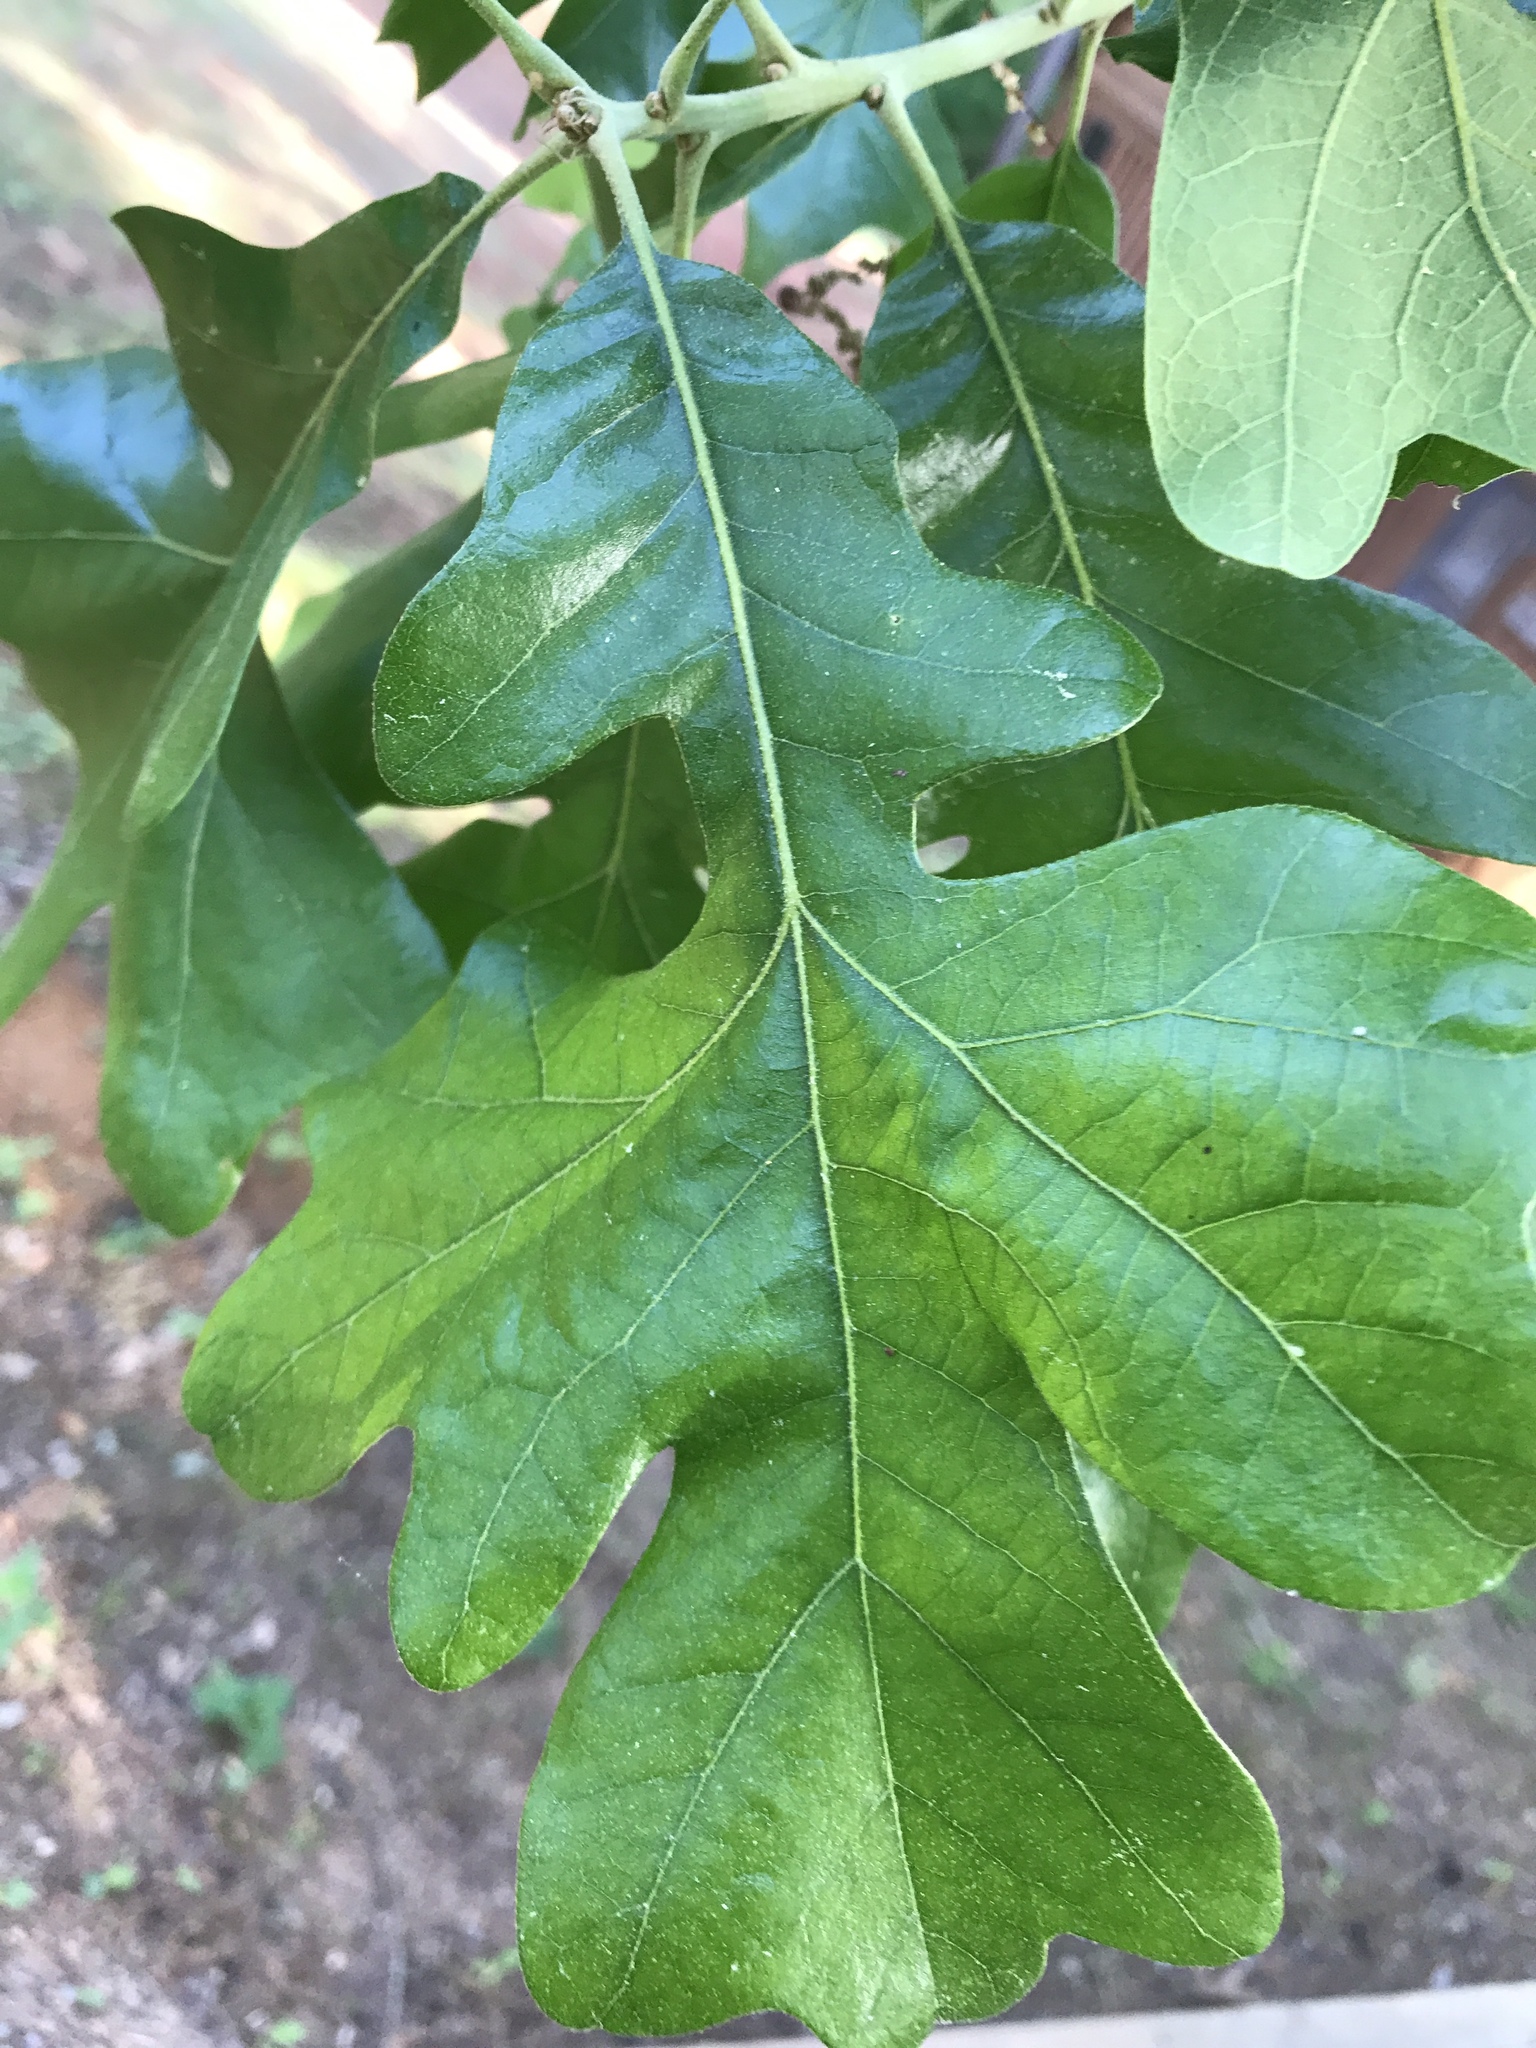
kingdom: Plantae
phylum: Tracheophyta
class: Magnoliopsida
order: Fagales
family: Fagaceae
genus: Quercus
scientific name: Quercus stellata
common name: Post oak
